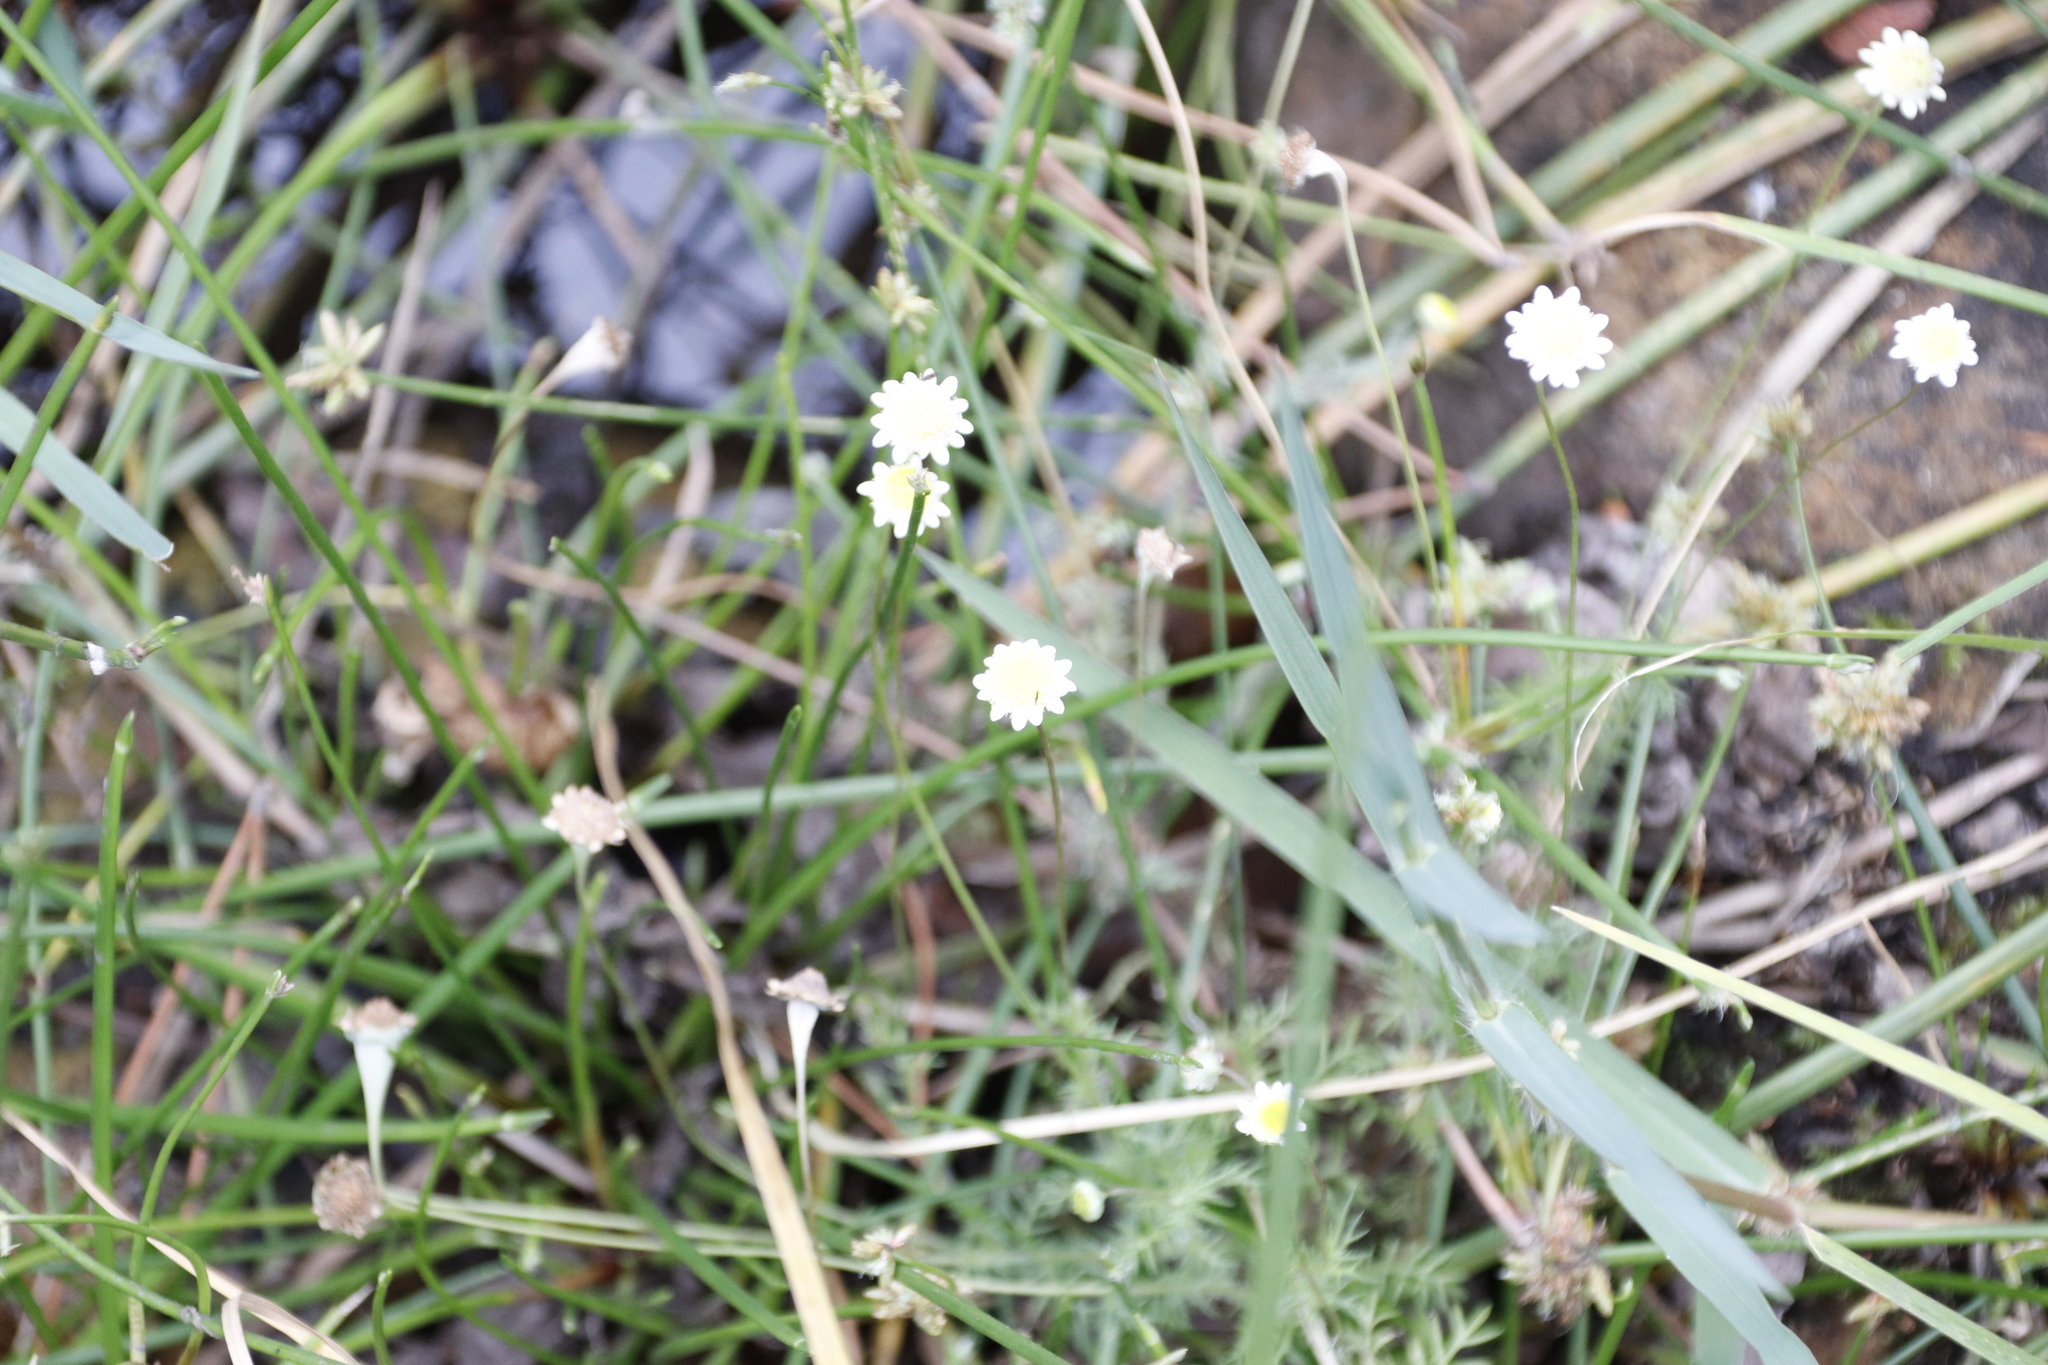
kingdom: Plantae
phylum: Tracheophyta
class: Magnoliopsida
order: Asterales
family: Asteraceae
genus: Cotula
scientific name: Cotula turbinata
